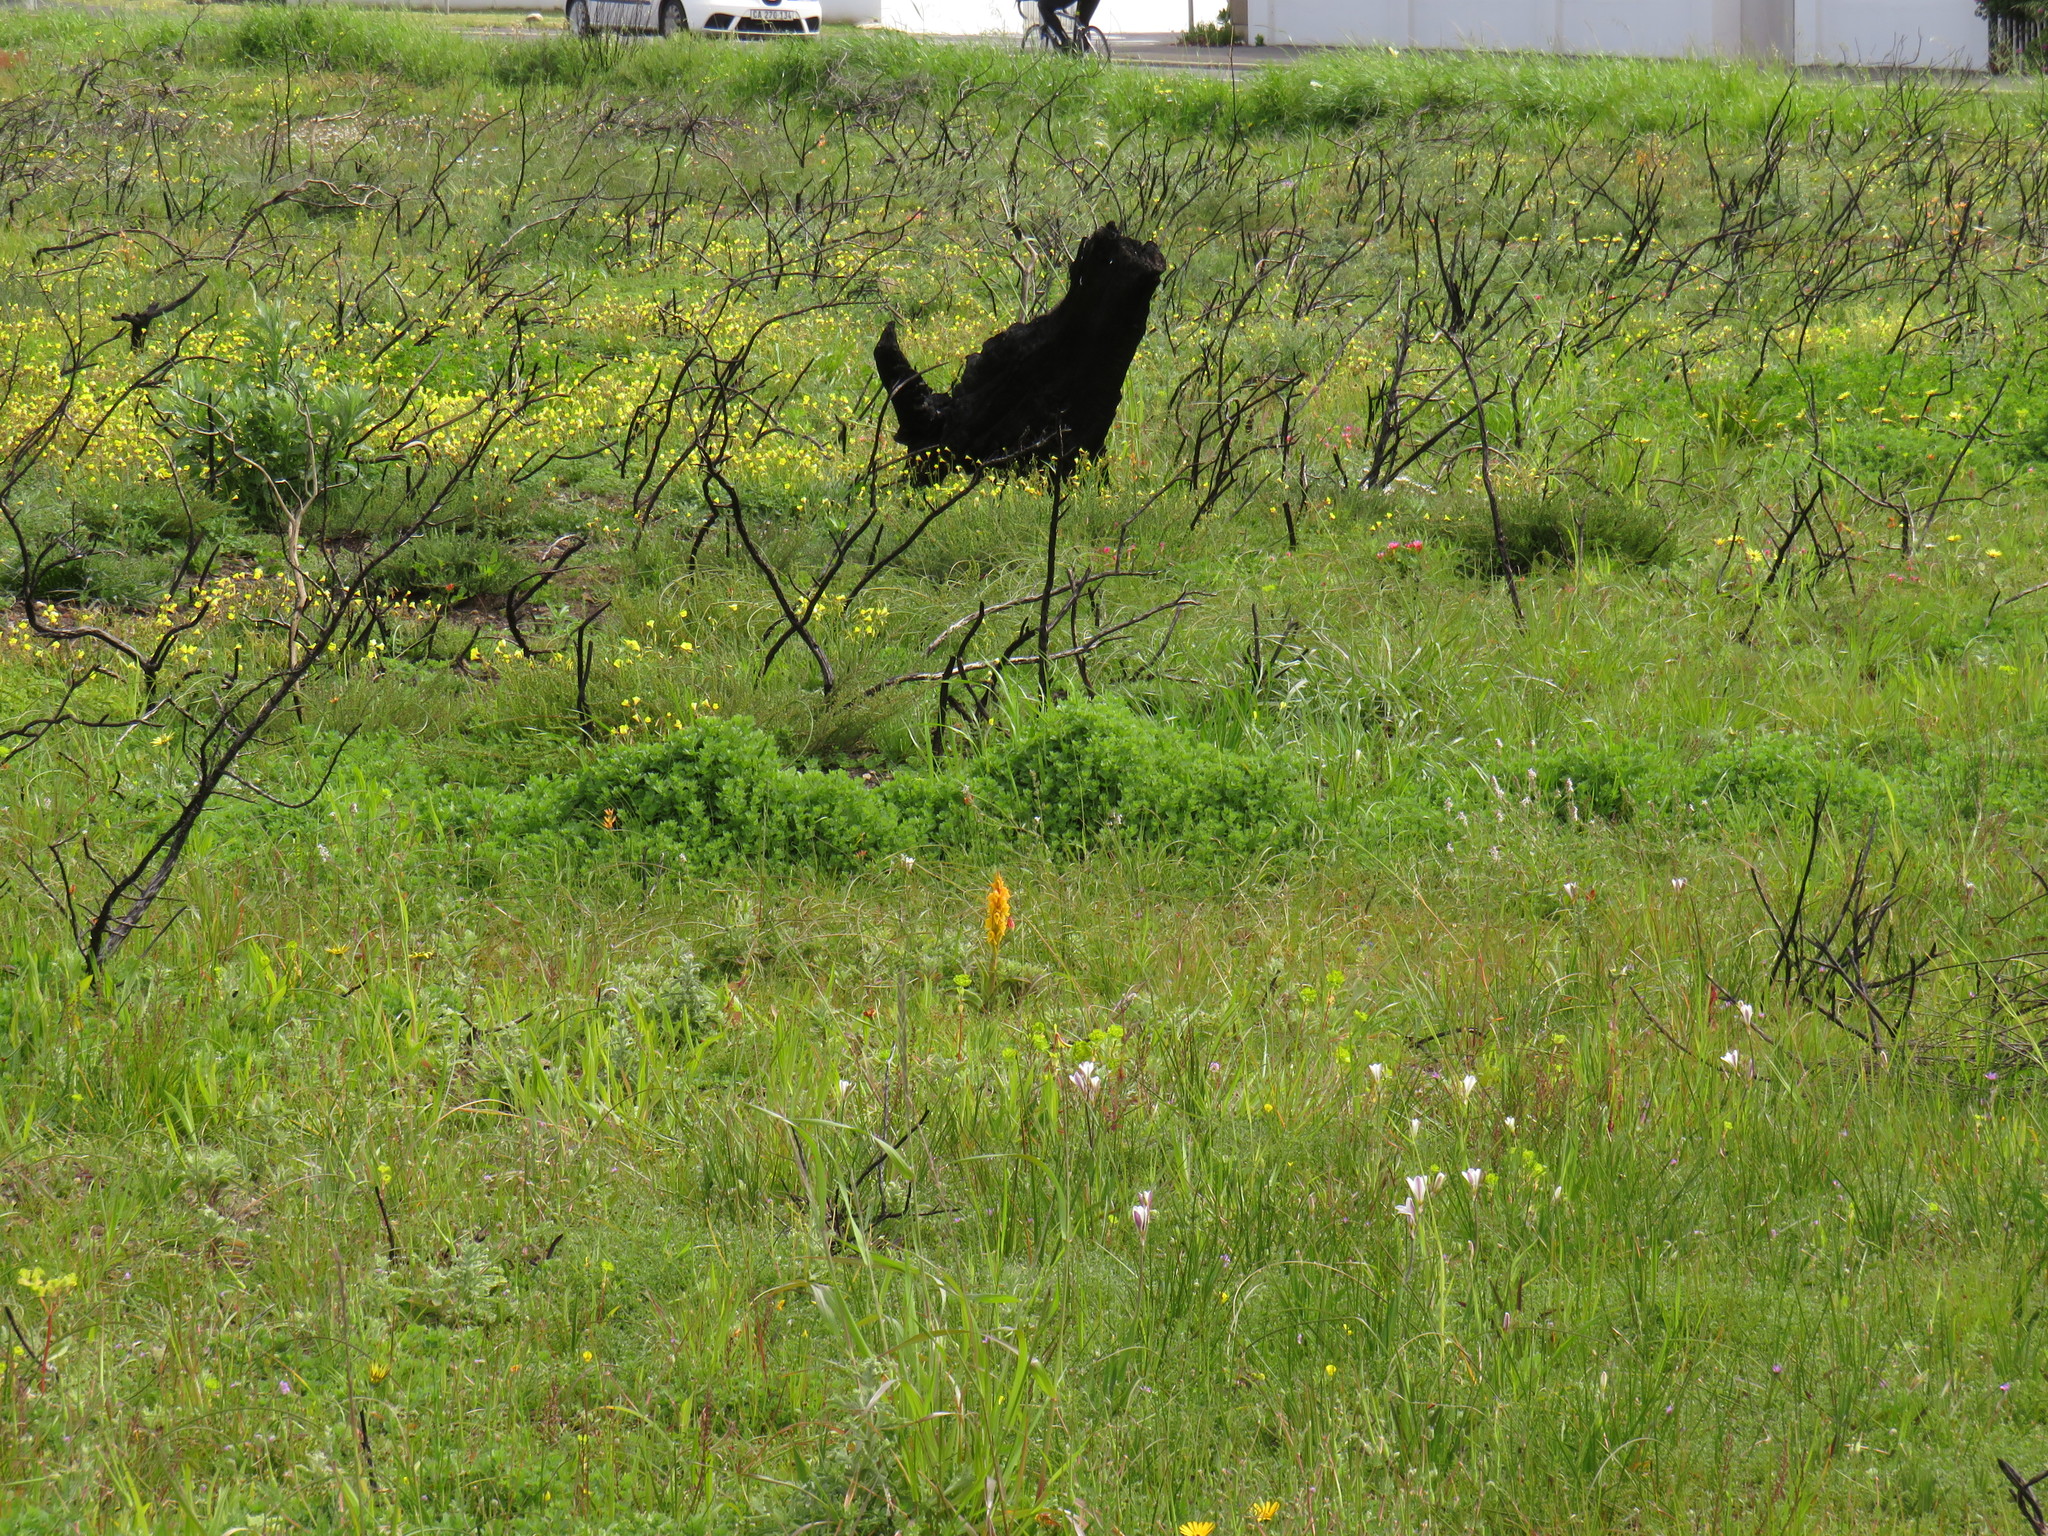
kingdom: Plantae
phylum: Tracheophyta
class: Liliopsida
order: Asparagales
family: Orchidaceae
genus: Satyrium
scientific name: Satyrium coriifolium
